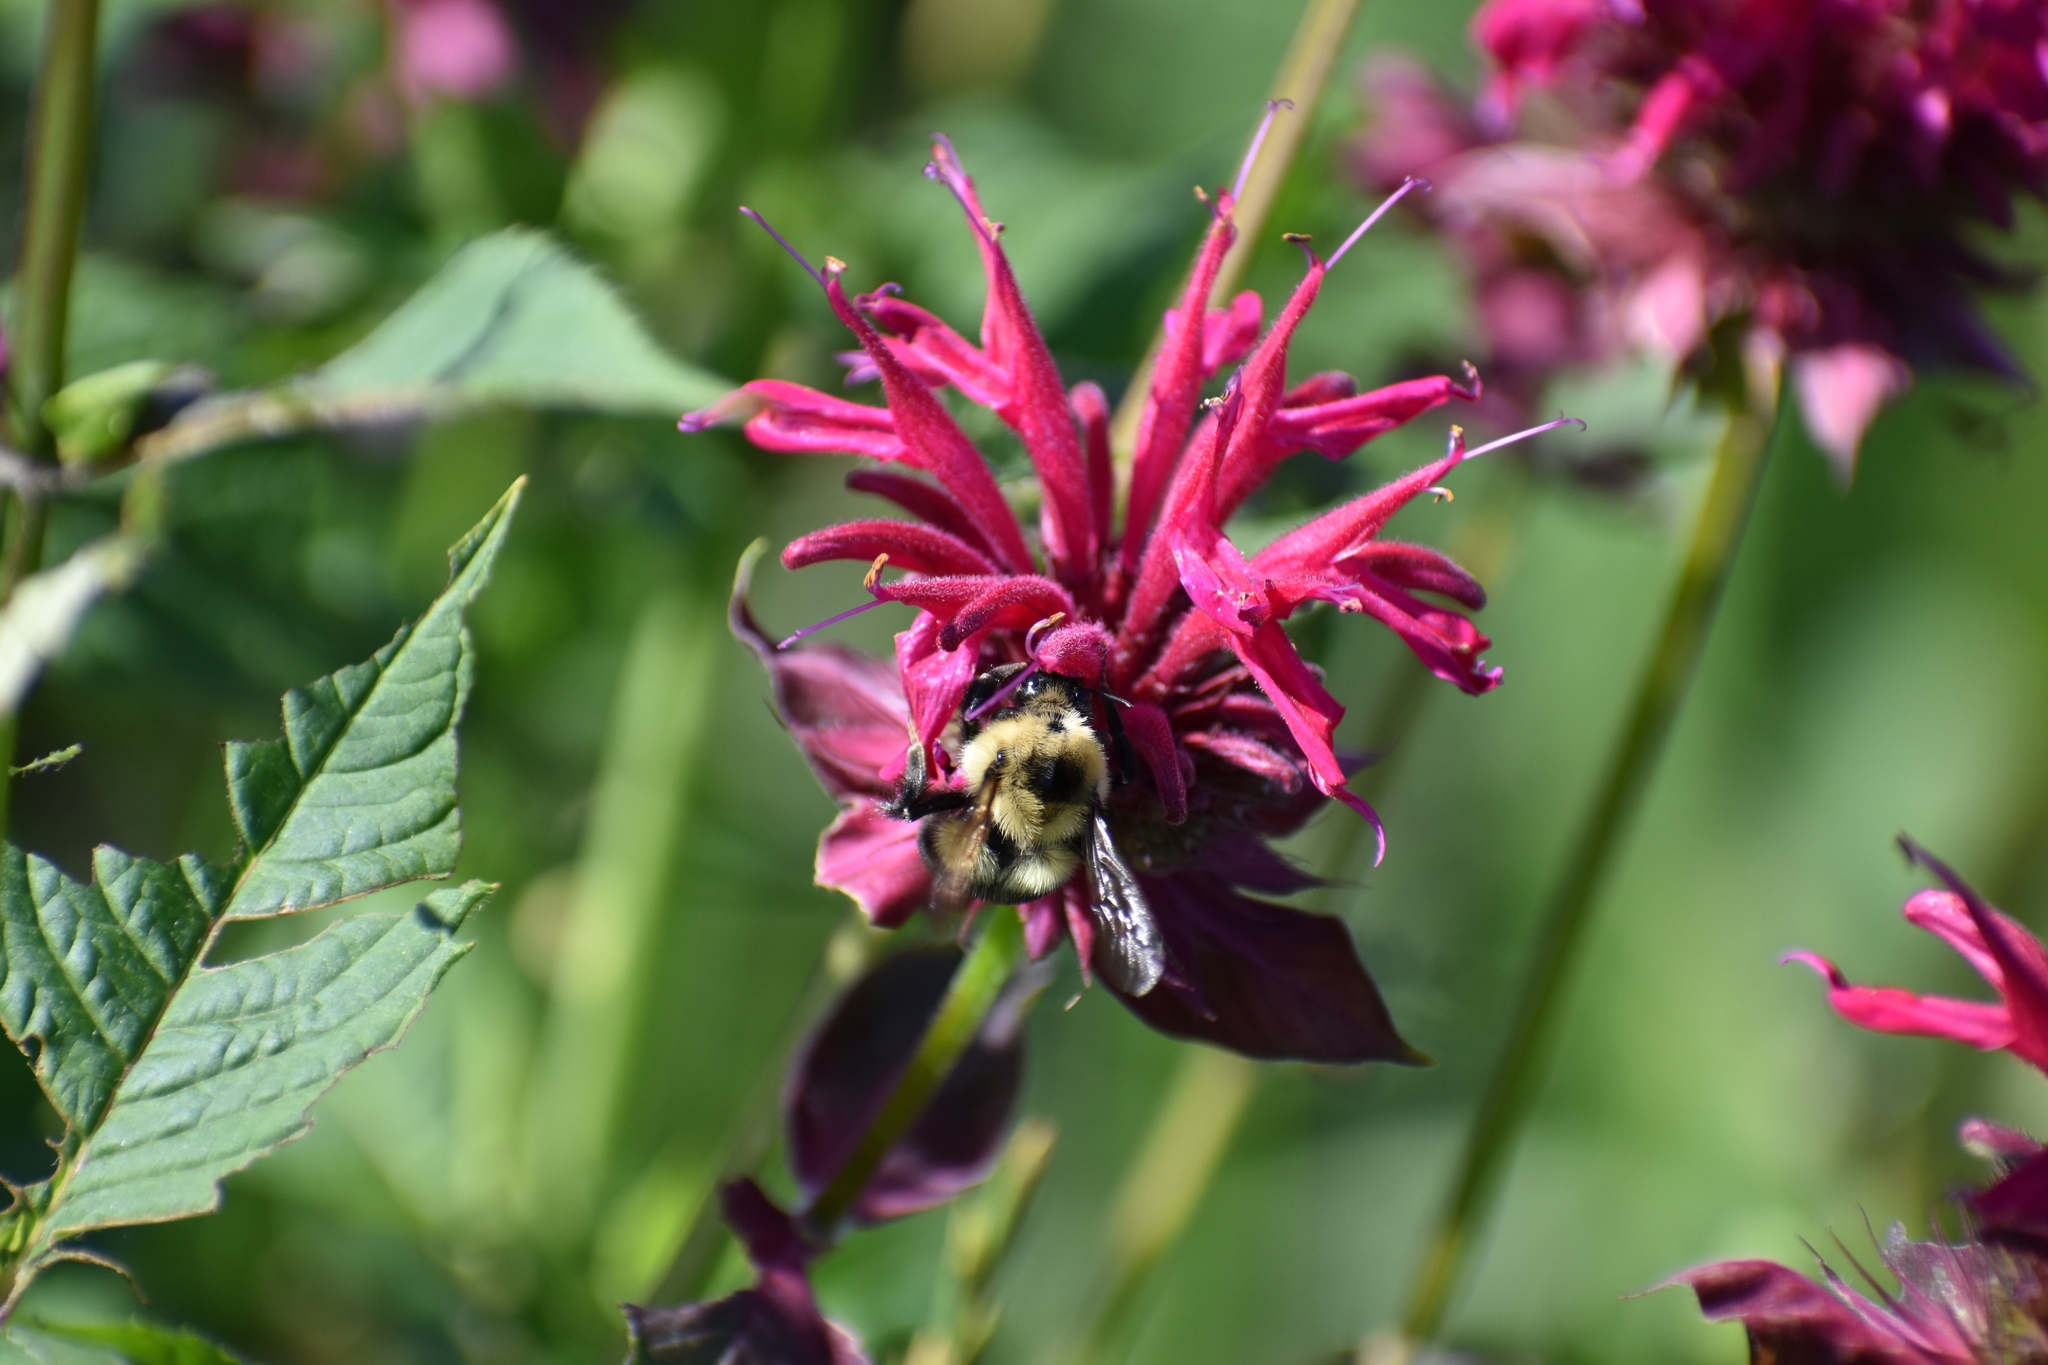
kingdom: Animalia
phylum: Arthropoda
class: Insecta
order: Hymenoptera
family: Apidae
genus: Bombus
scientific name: Bombus bimaculatus
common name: Two-spotted bumble bee
